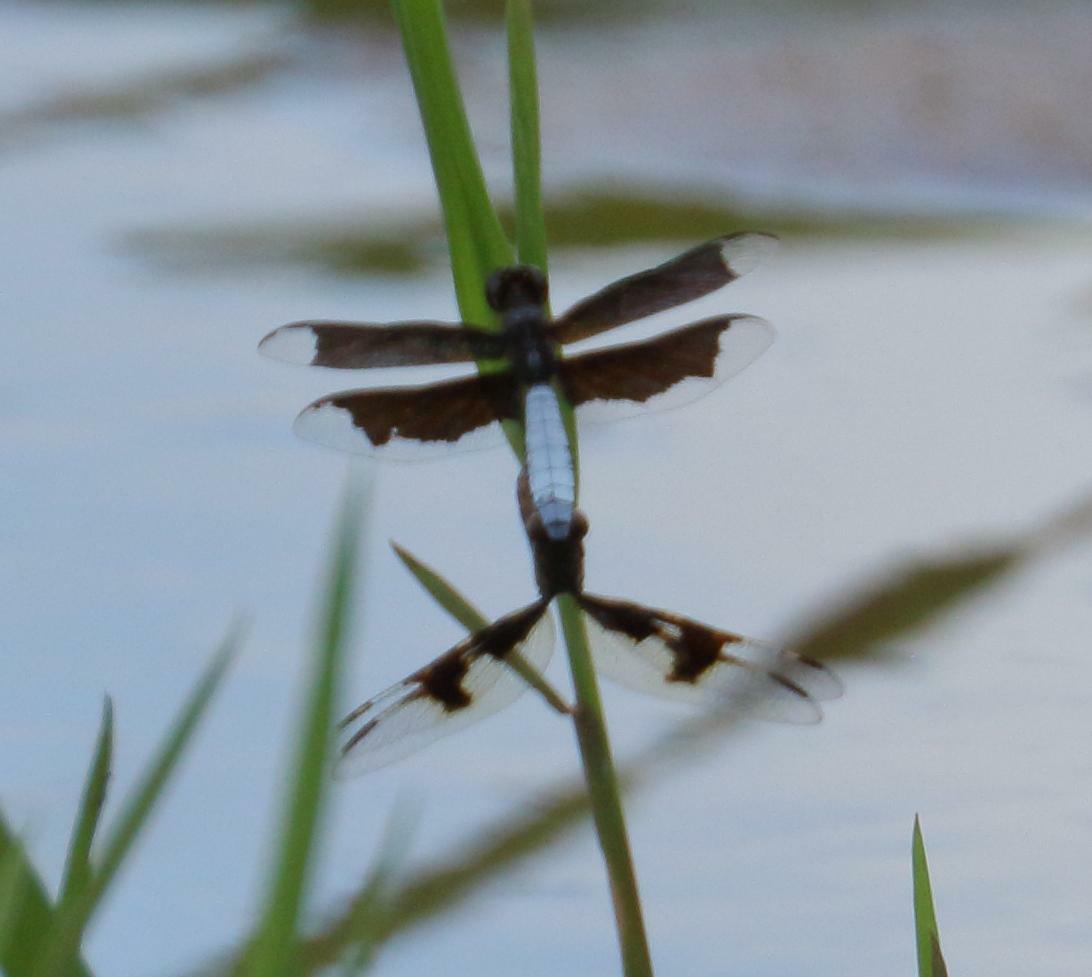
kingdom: Animalia
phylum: Arthropoda
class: Insecta
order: Odonata
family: Libellulidae
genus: Palpopleura
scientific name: Palpopleura lucia
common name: Lucia widow
